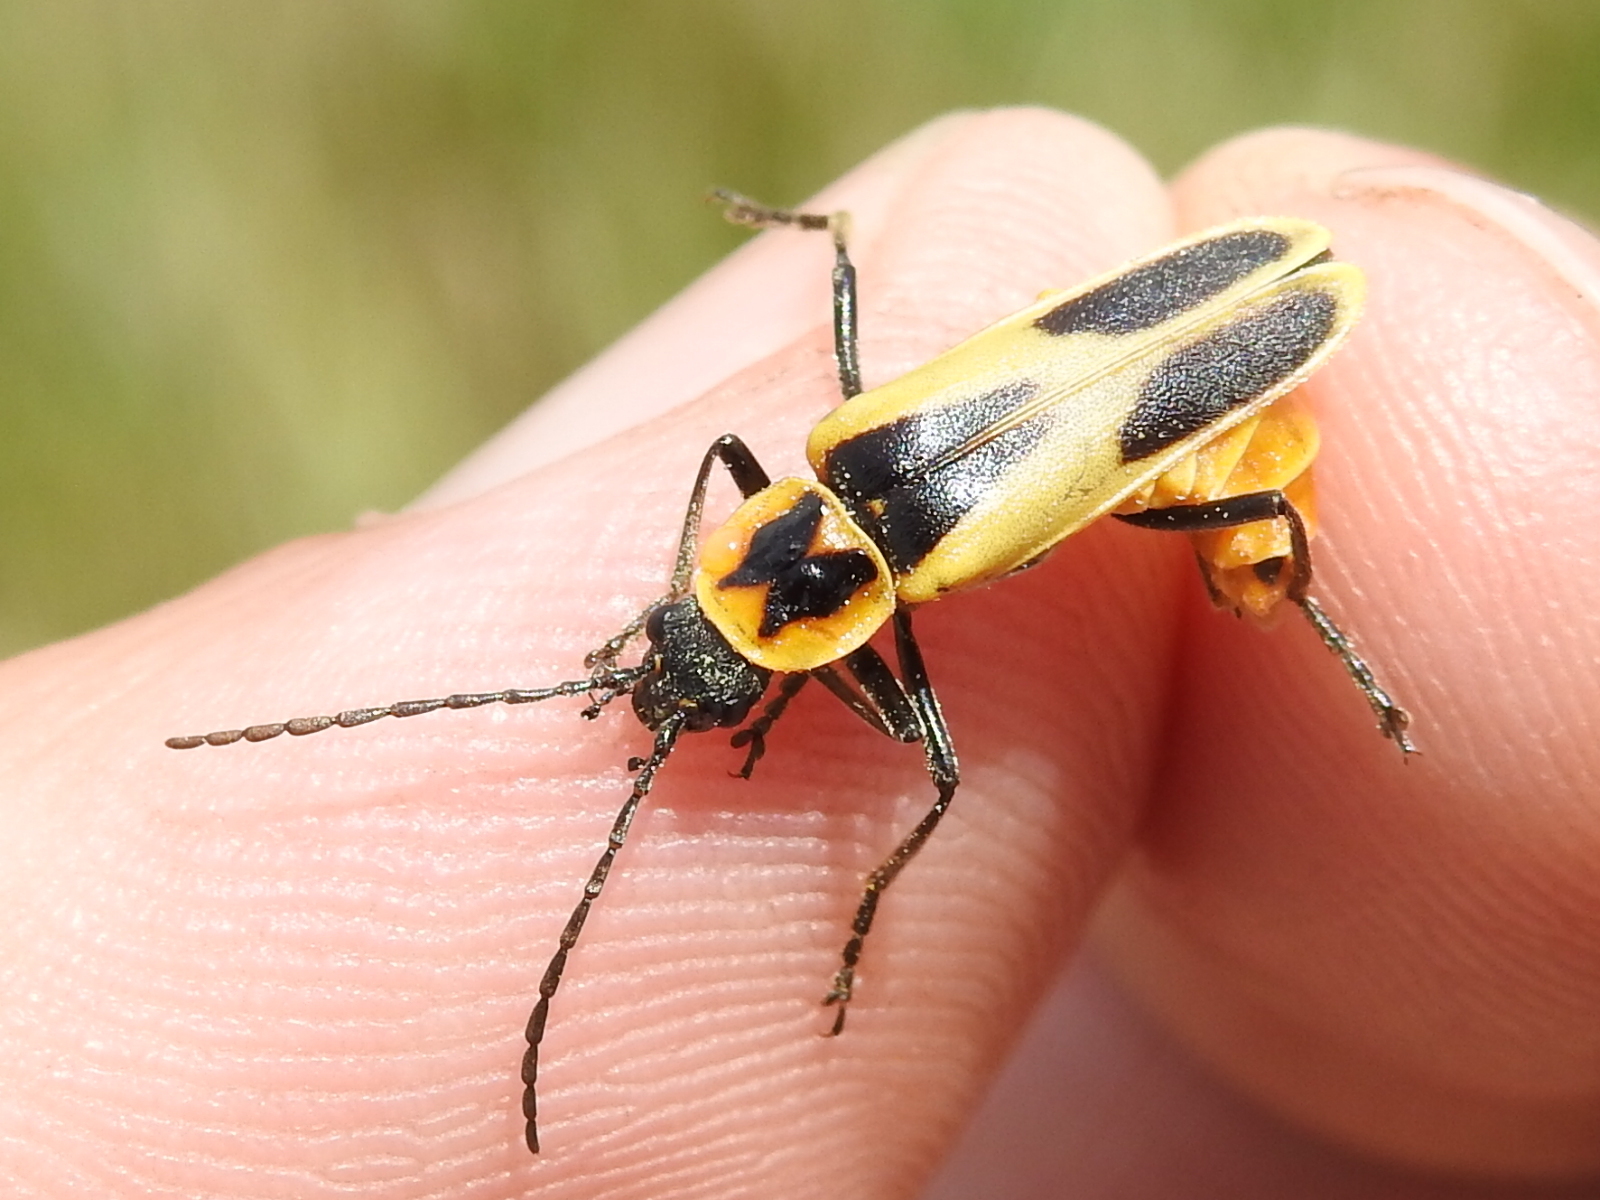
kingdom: Animalia
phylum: Arthropoda
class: Insecta
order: Coleoptera
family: Cantharidae
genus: Chauliognathus
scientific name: Chauliognathus scutellaris
